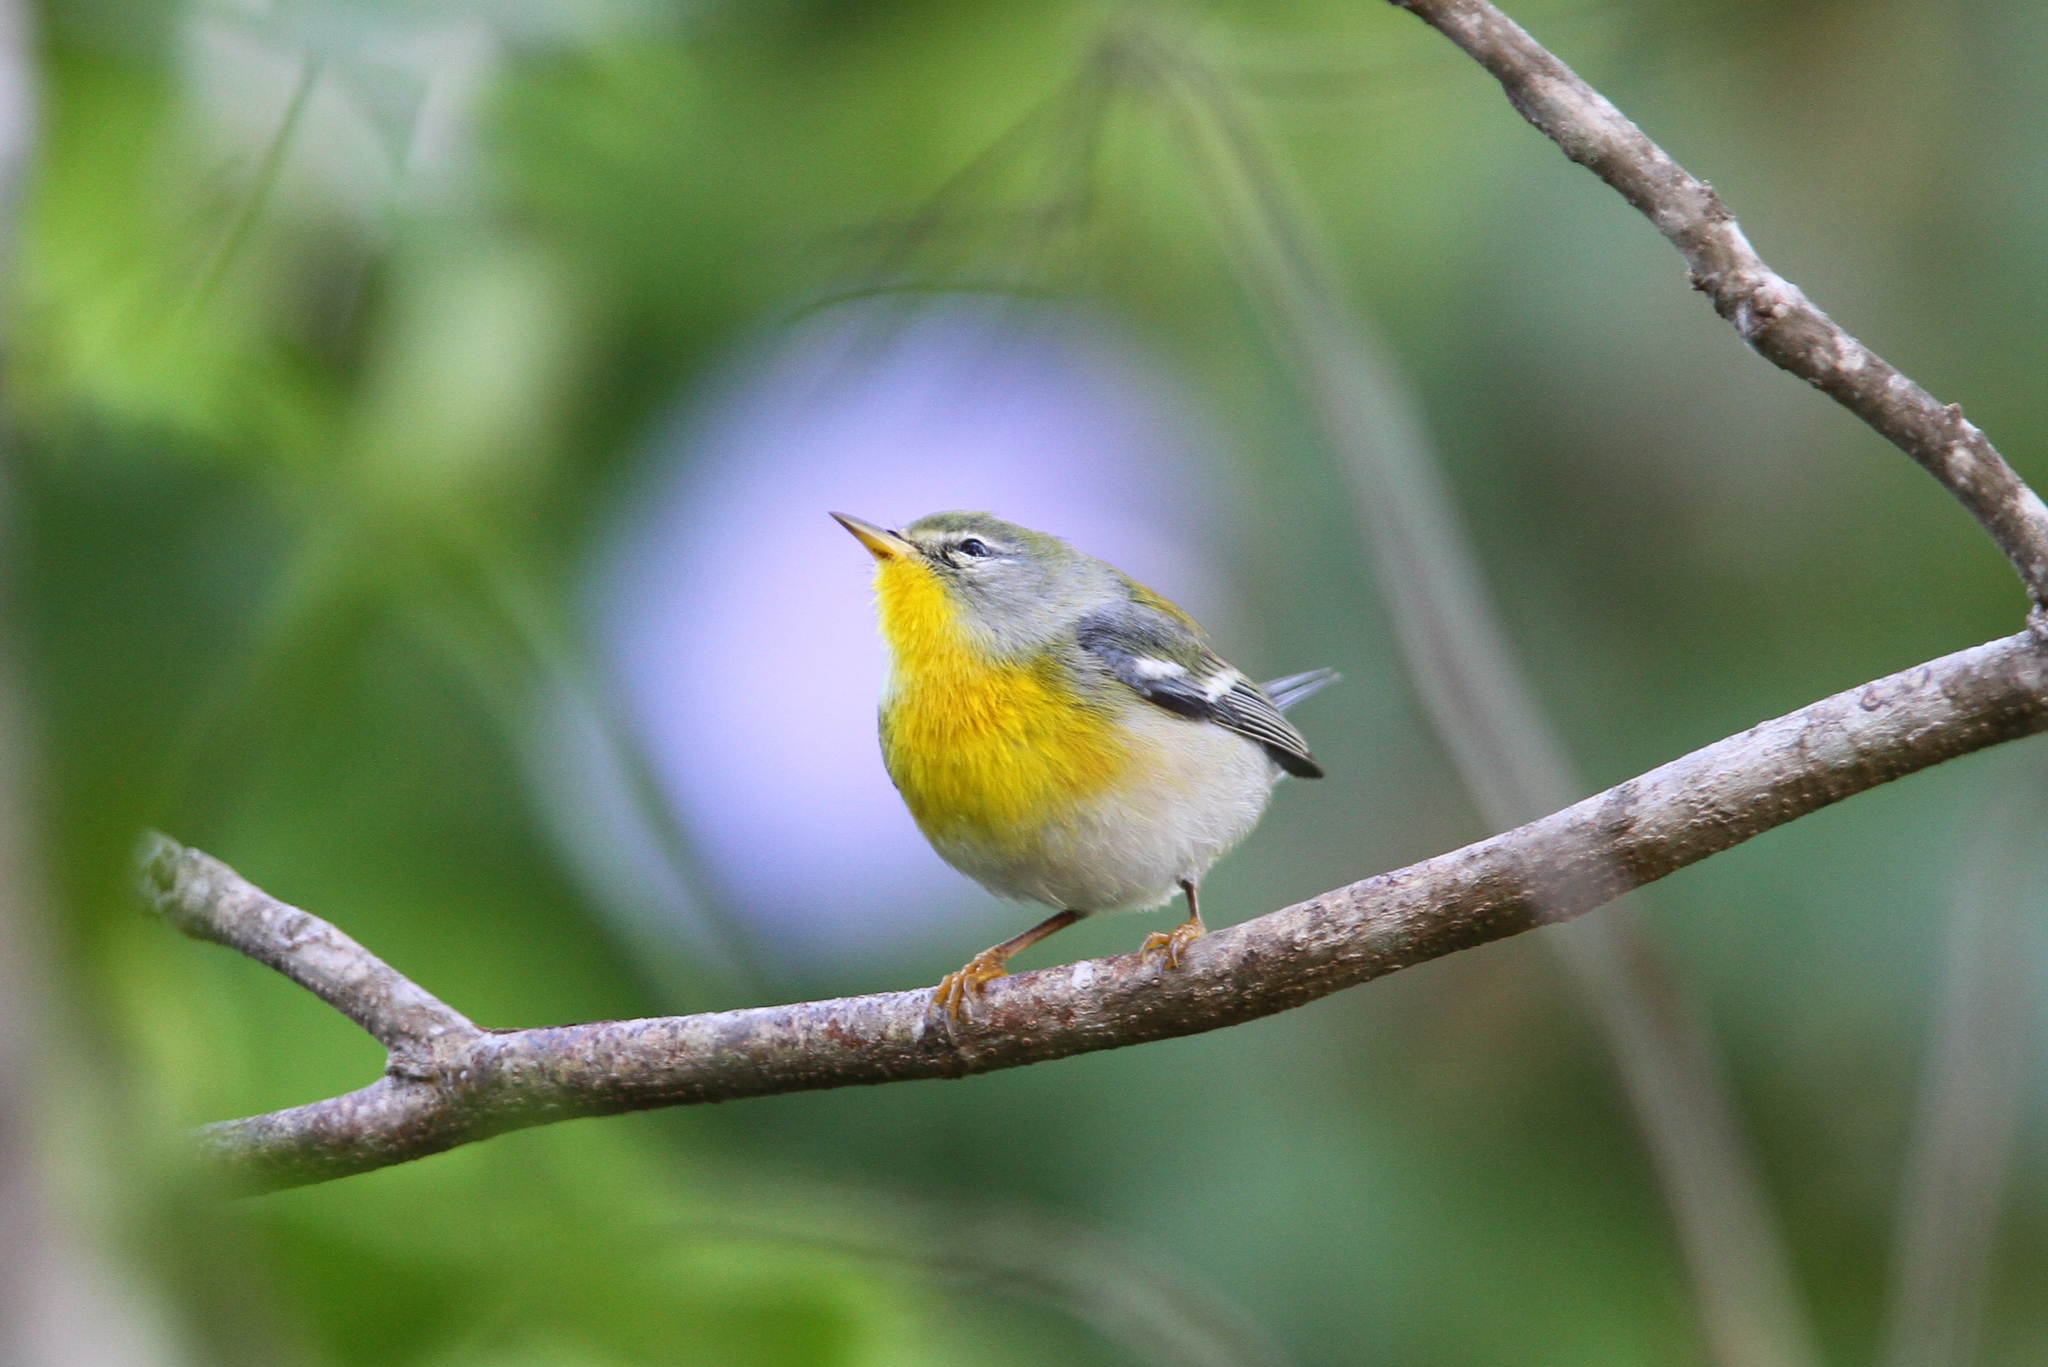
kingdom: Animalia
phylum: Chordata
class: Aves
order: Passeriformes
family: Parulidae
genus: Setophaga
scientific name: Setophaga americana
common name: Northern parula
